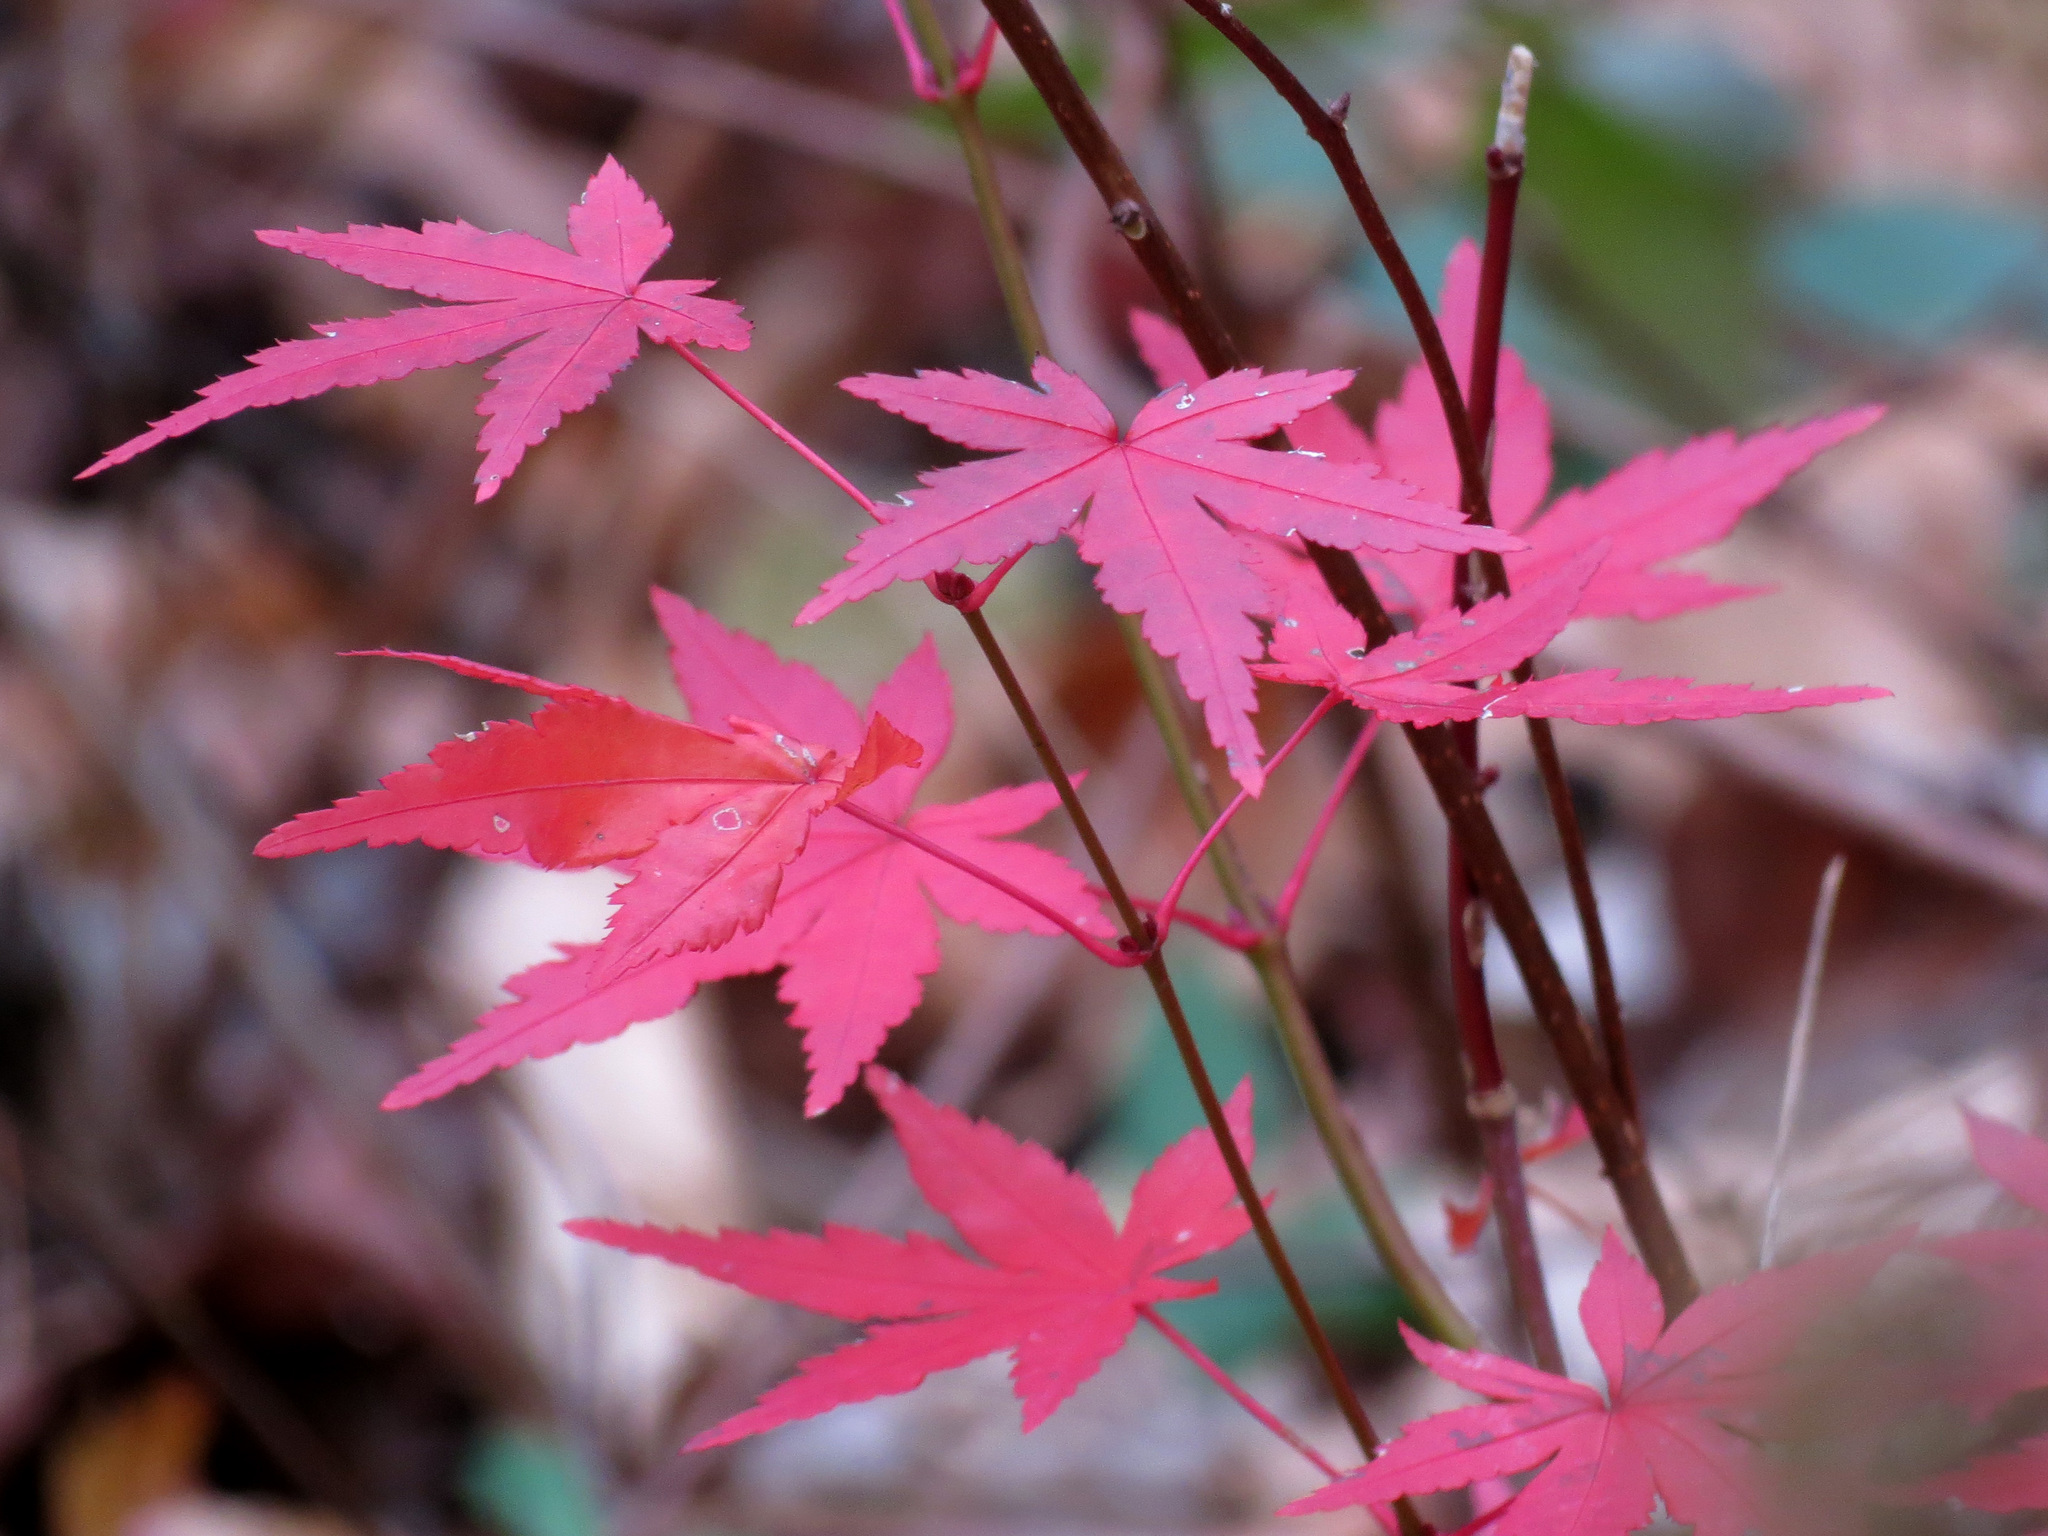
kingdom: Plantae
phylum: Tracheophyta
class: Magnoliopsida
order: Sapindales
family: Sapindaceae
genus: Acer
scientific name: Acer palmatum
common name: Japanese maple
